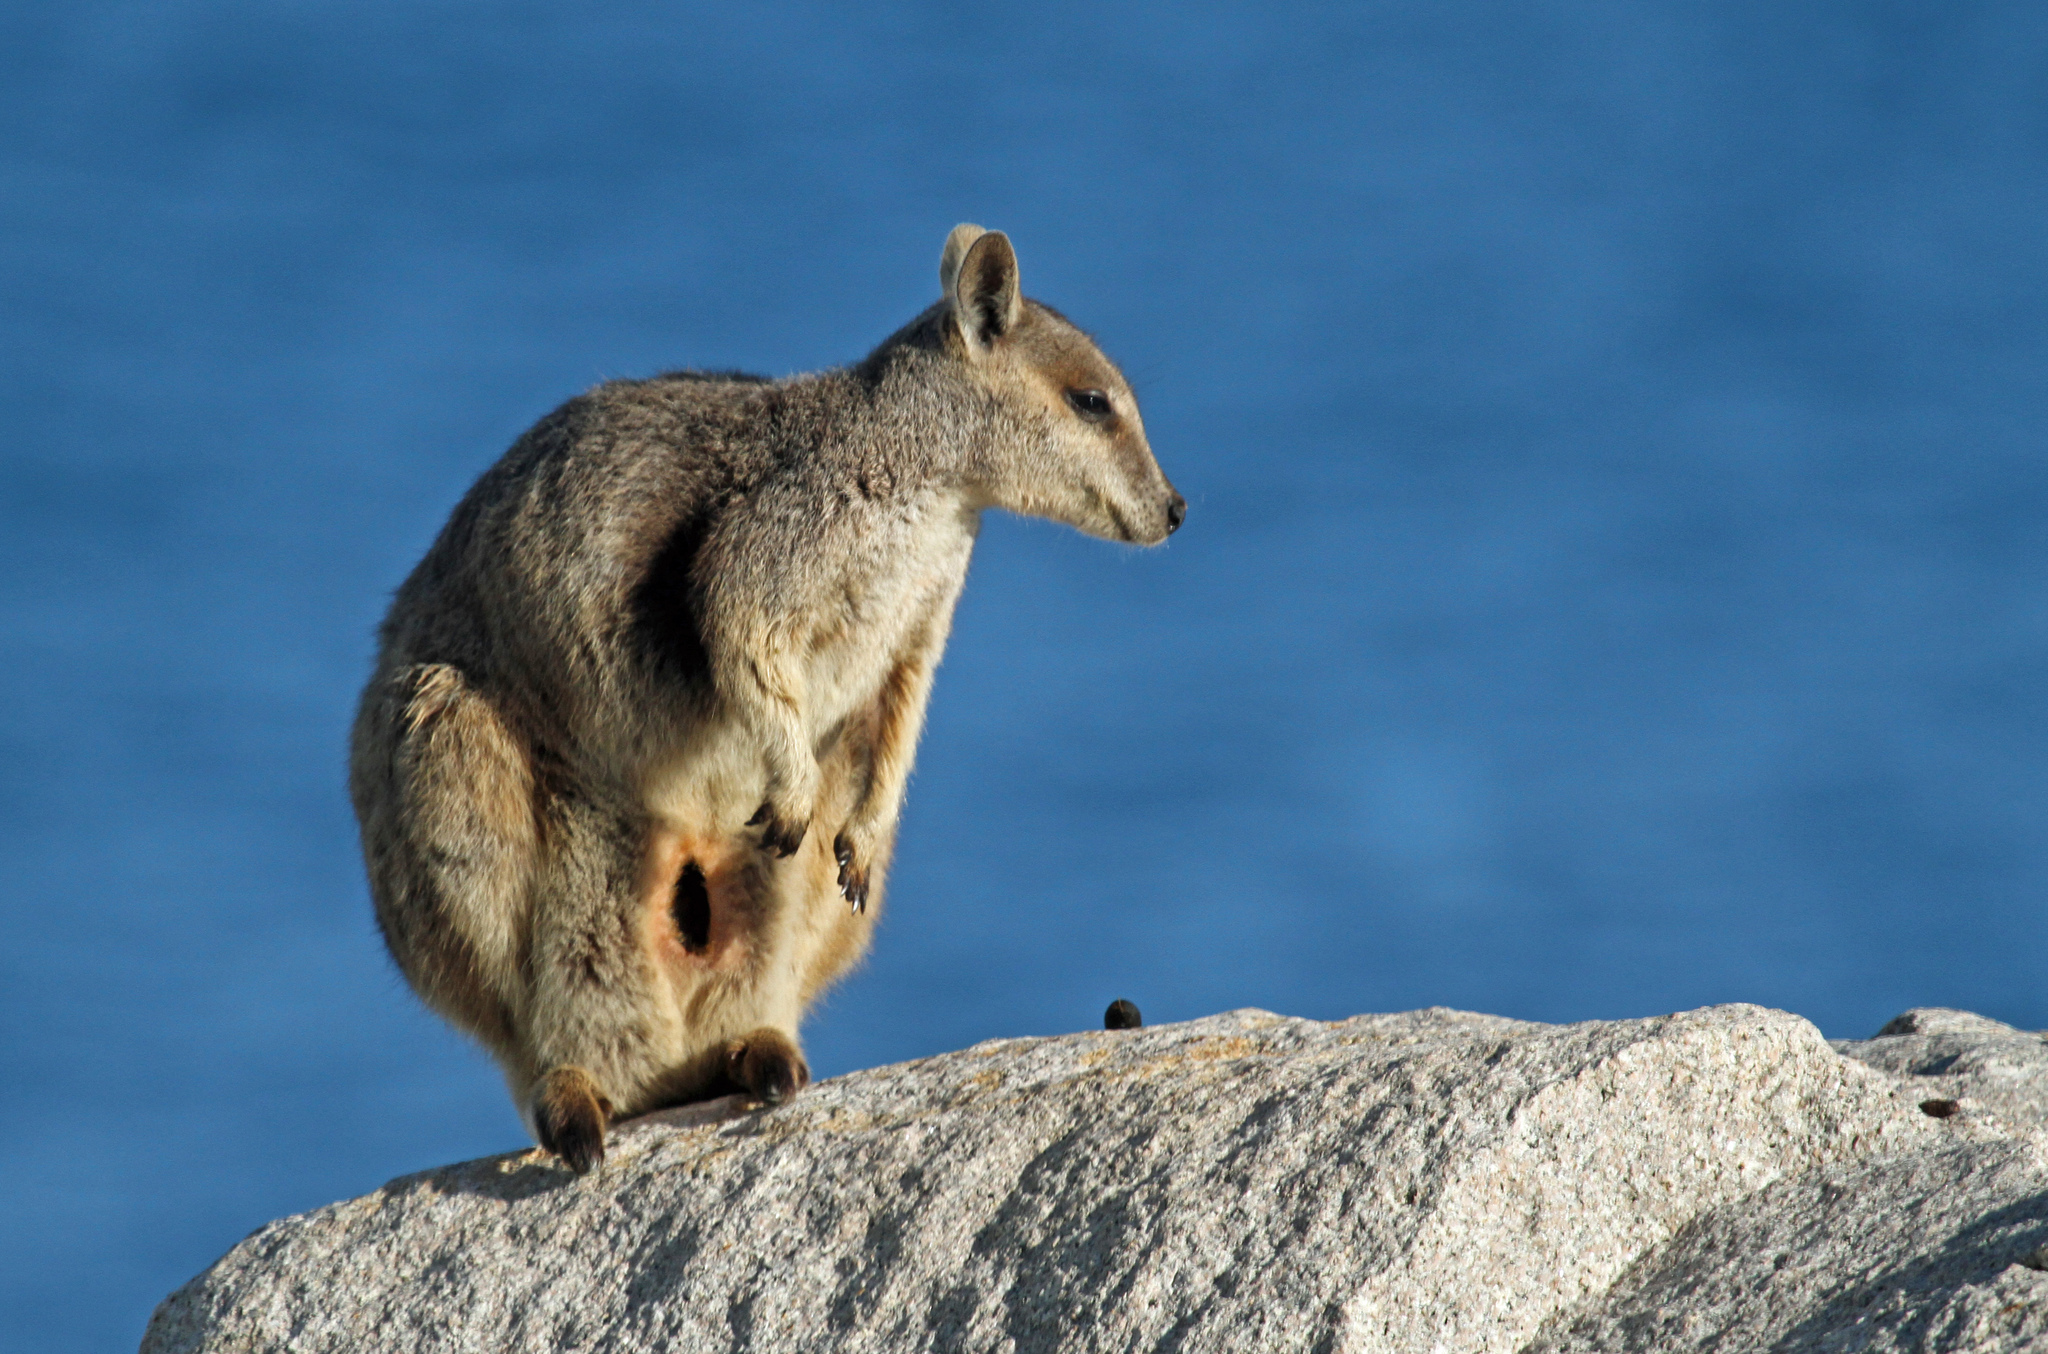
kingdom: Animalia
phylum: Chordata
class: Mammalia
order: Diprotodontia
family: Macropodidae
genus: Petrogale
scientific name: Petrogale assimilis
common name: Allied rock wallaby
